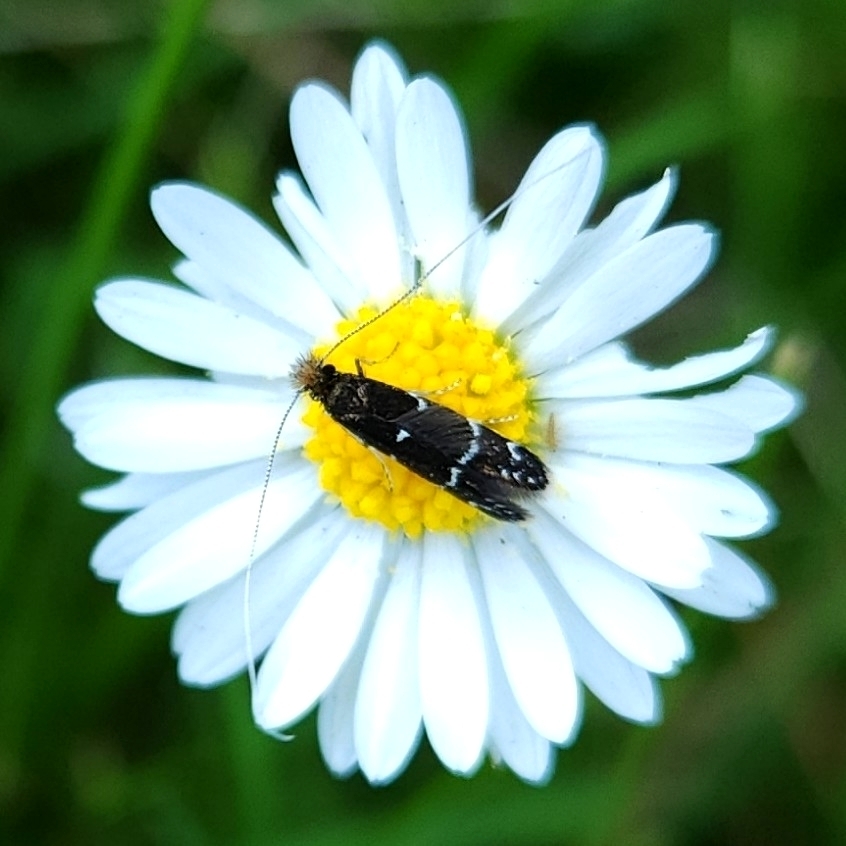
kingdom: Animalia
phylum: Arthropoda
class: Insecta
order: Lepidoptera
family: Adelidae
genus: Adela
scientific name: Adela septentrionella
